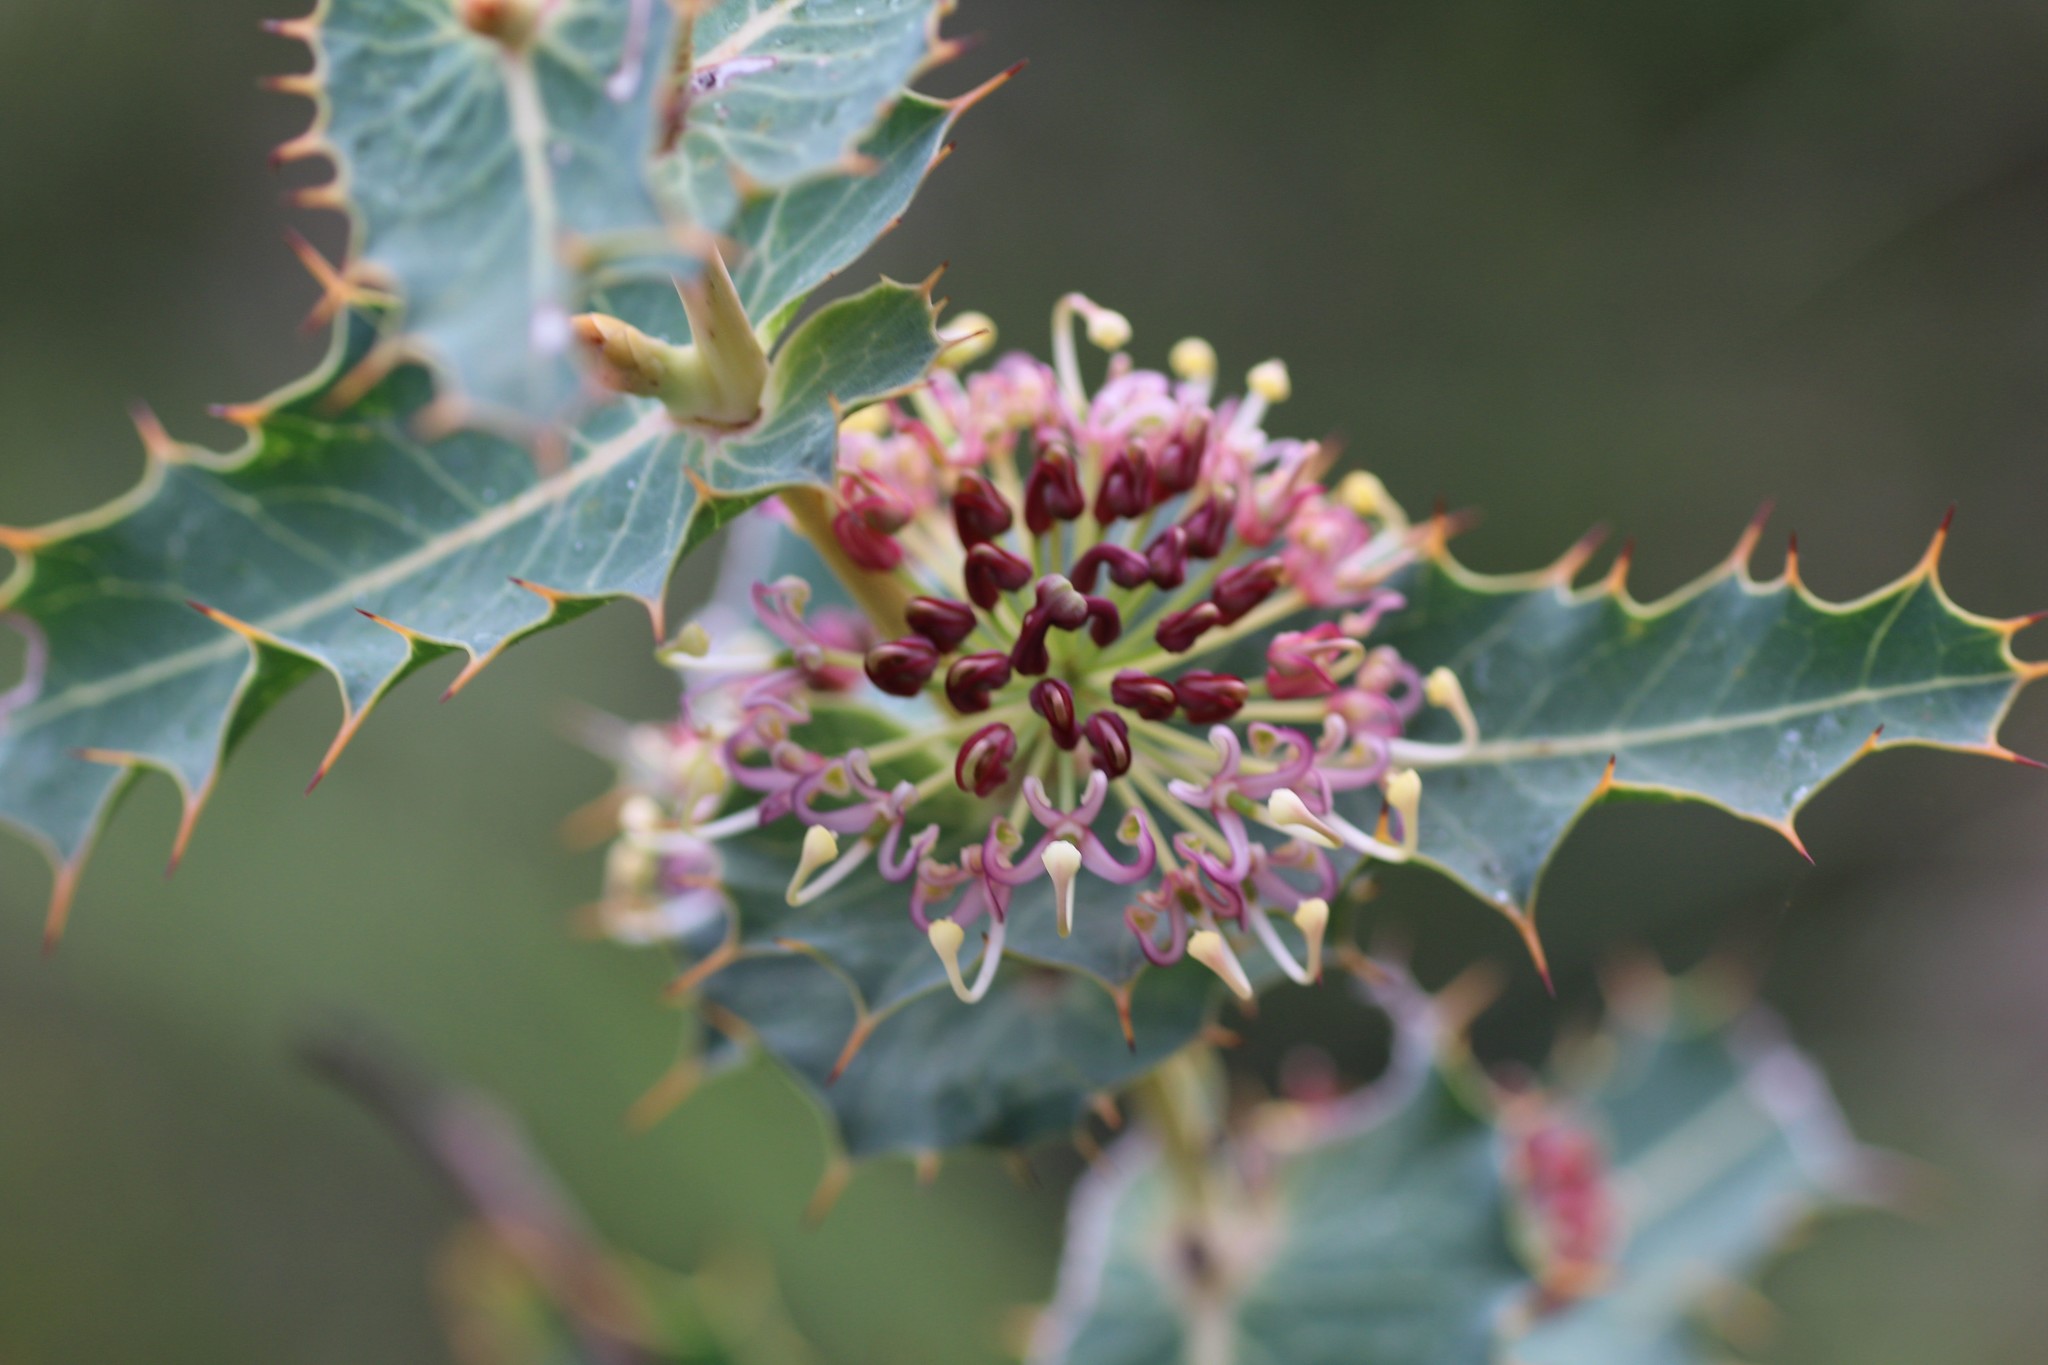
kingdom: Plantae
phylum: Tracheophyta
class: Magnoliopsida
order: Proteales
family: Proteaceae
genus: Hakea
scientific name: Hakea amplexicaulis
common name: Prickly hakea
